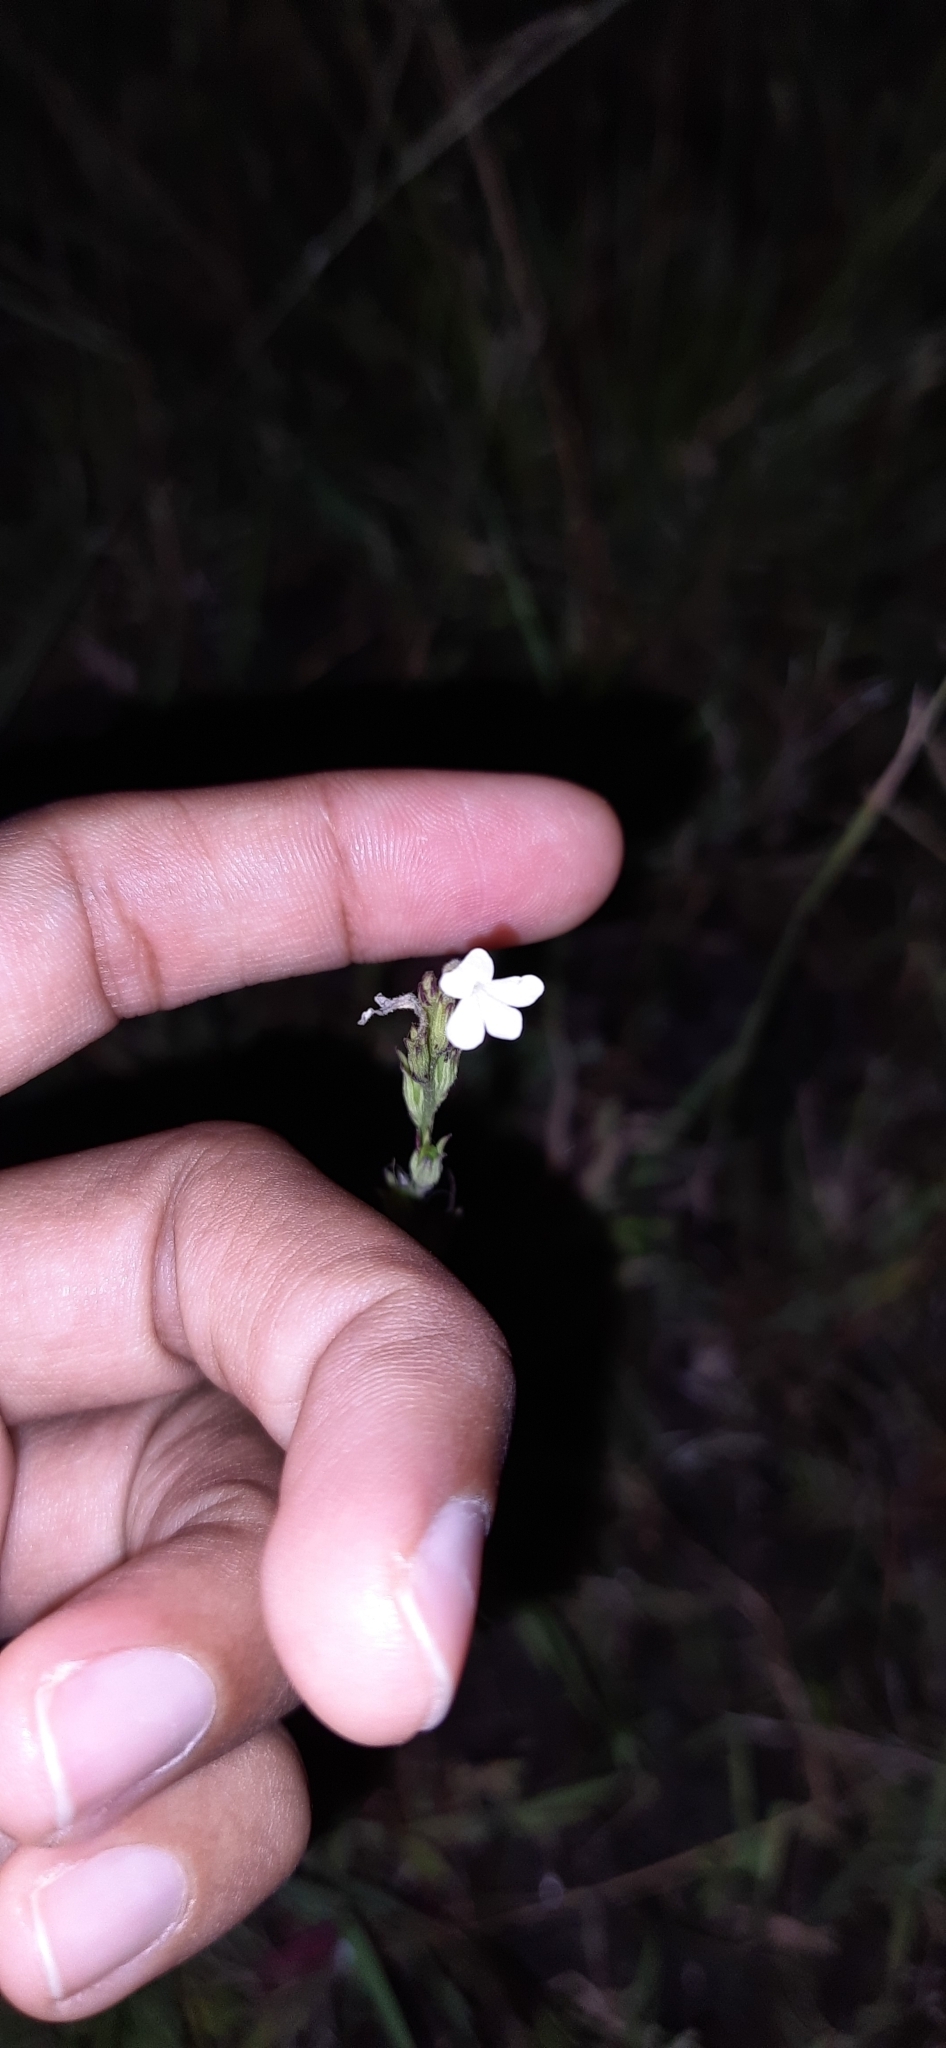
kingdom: Plantae
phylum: Tracheophyta
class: Magnoliopsida
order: Lamiales
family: Orobanchaceae
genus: Striga
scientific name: Striga angustifolia
